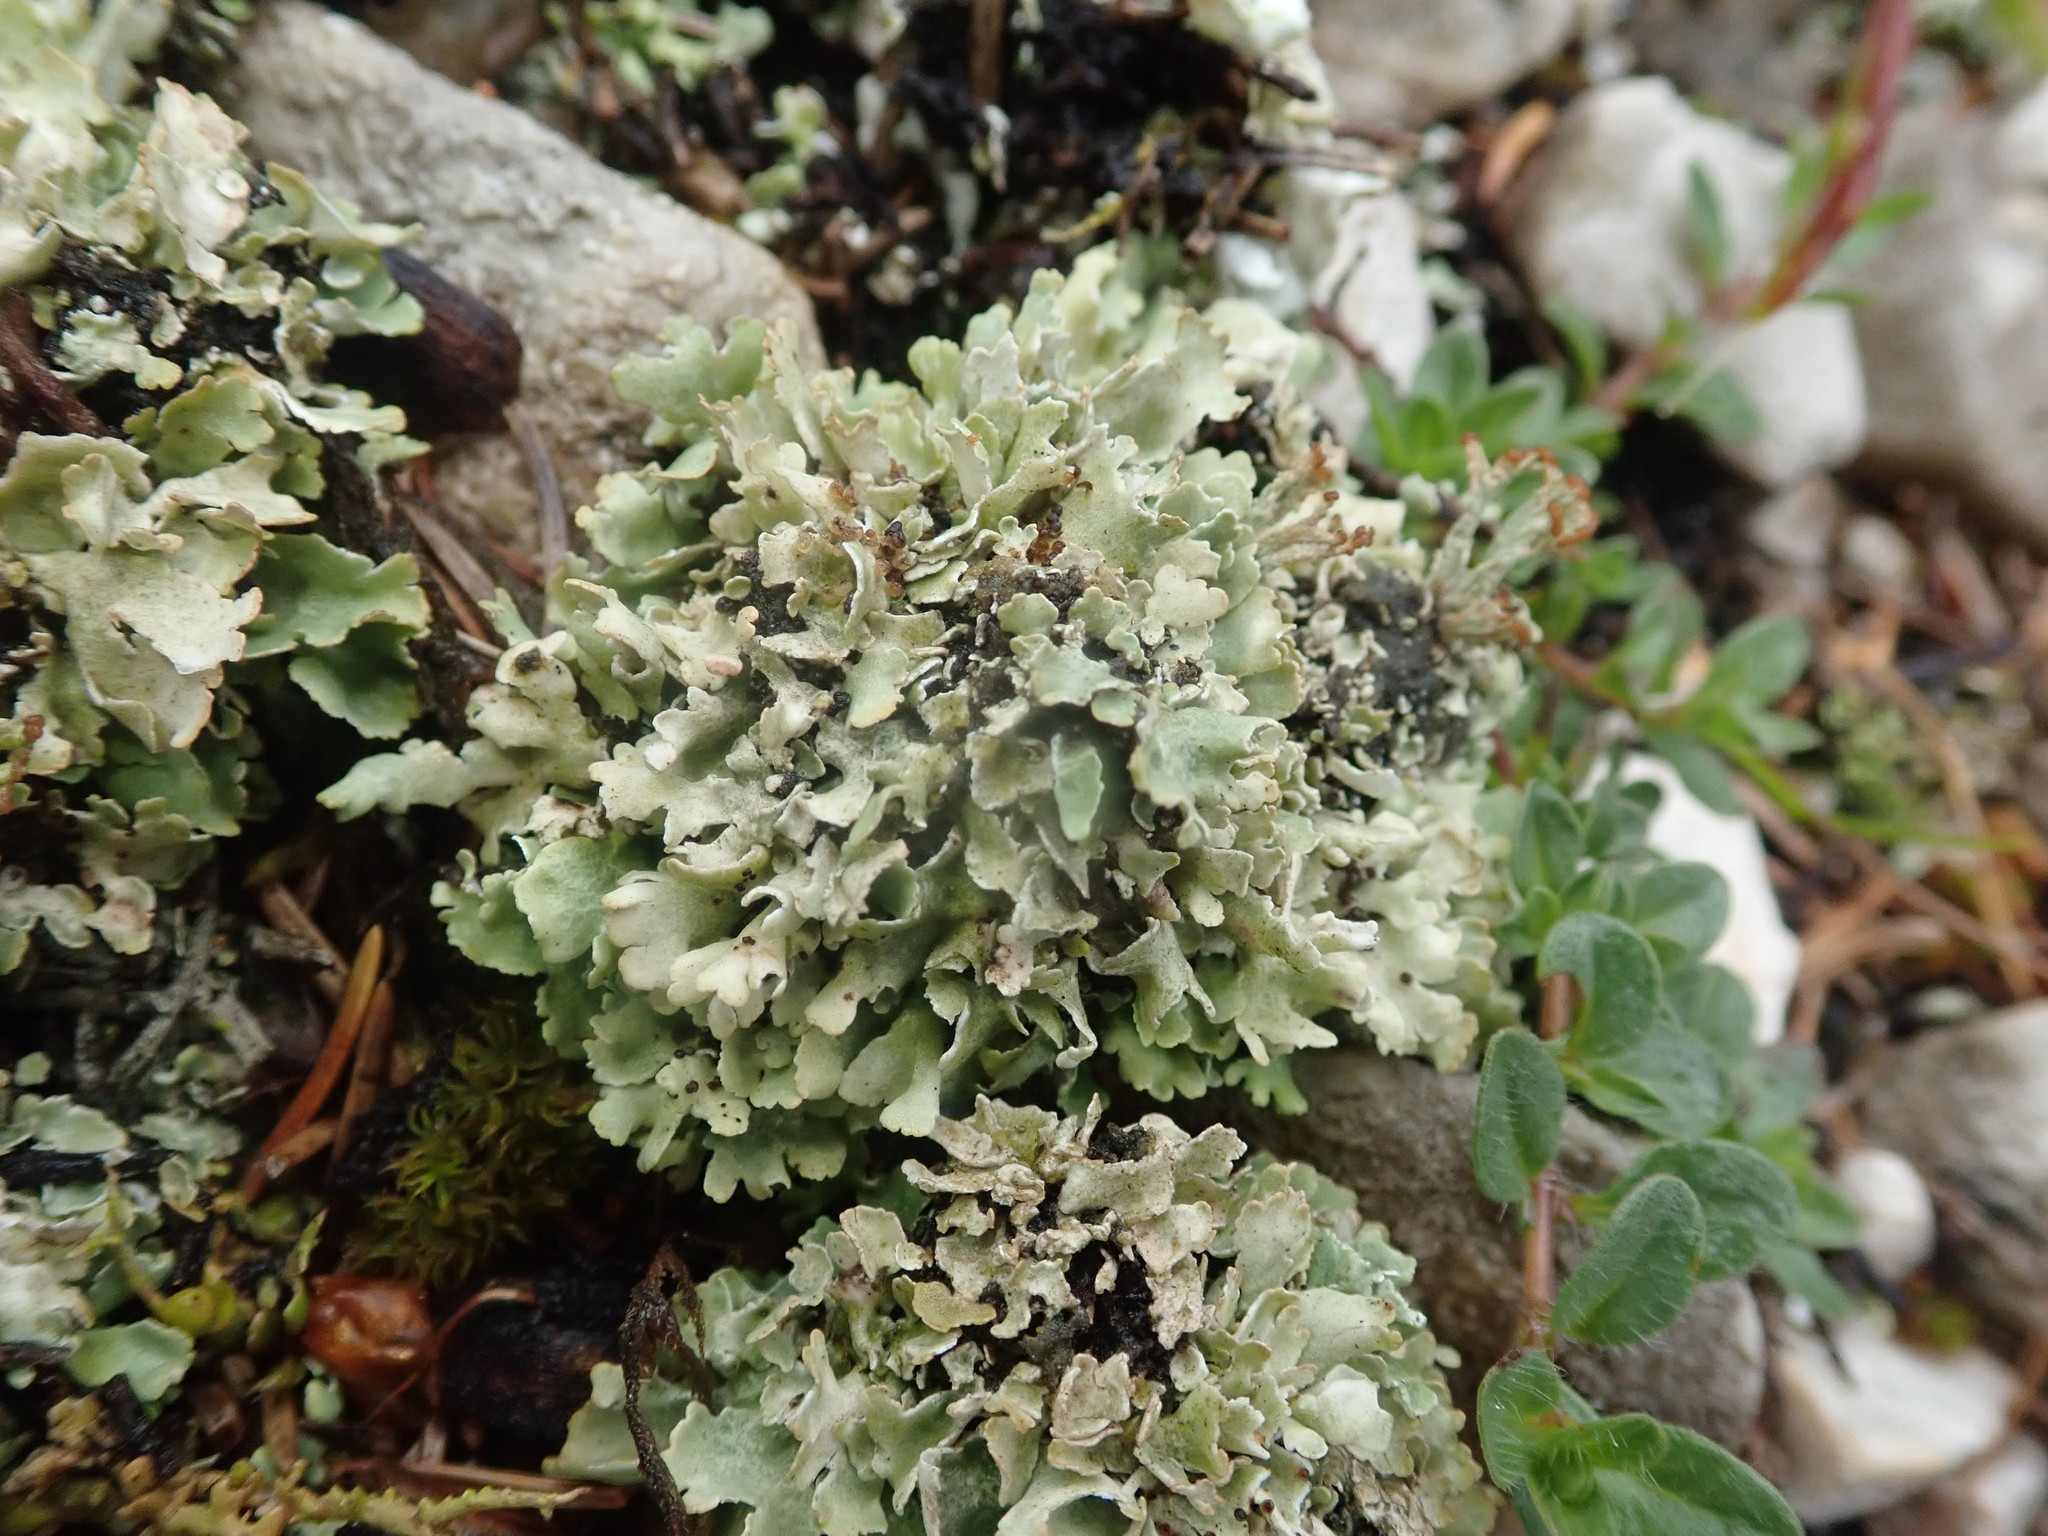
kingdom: Fungi
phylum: Ascomycota
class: Lecanoromycetes
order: Lecanorales
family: Cladoniaceae
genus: Cladonia
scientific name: Cladonia foliacea
